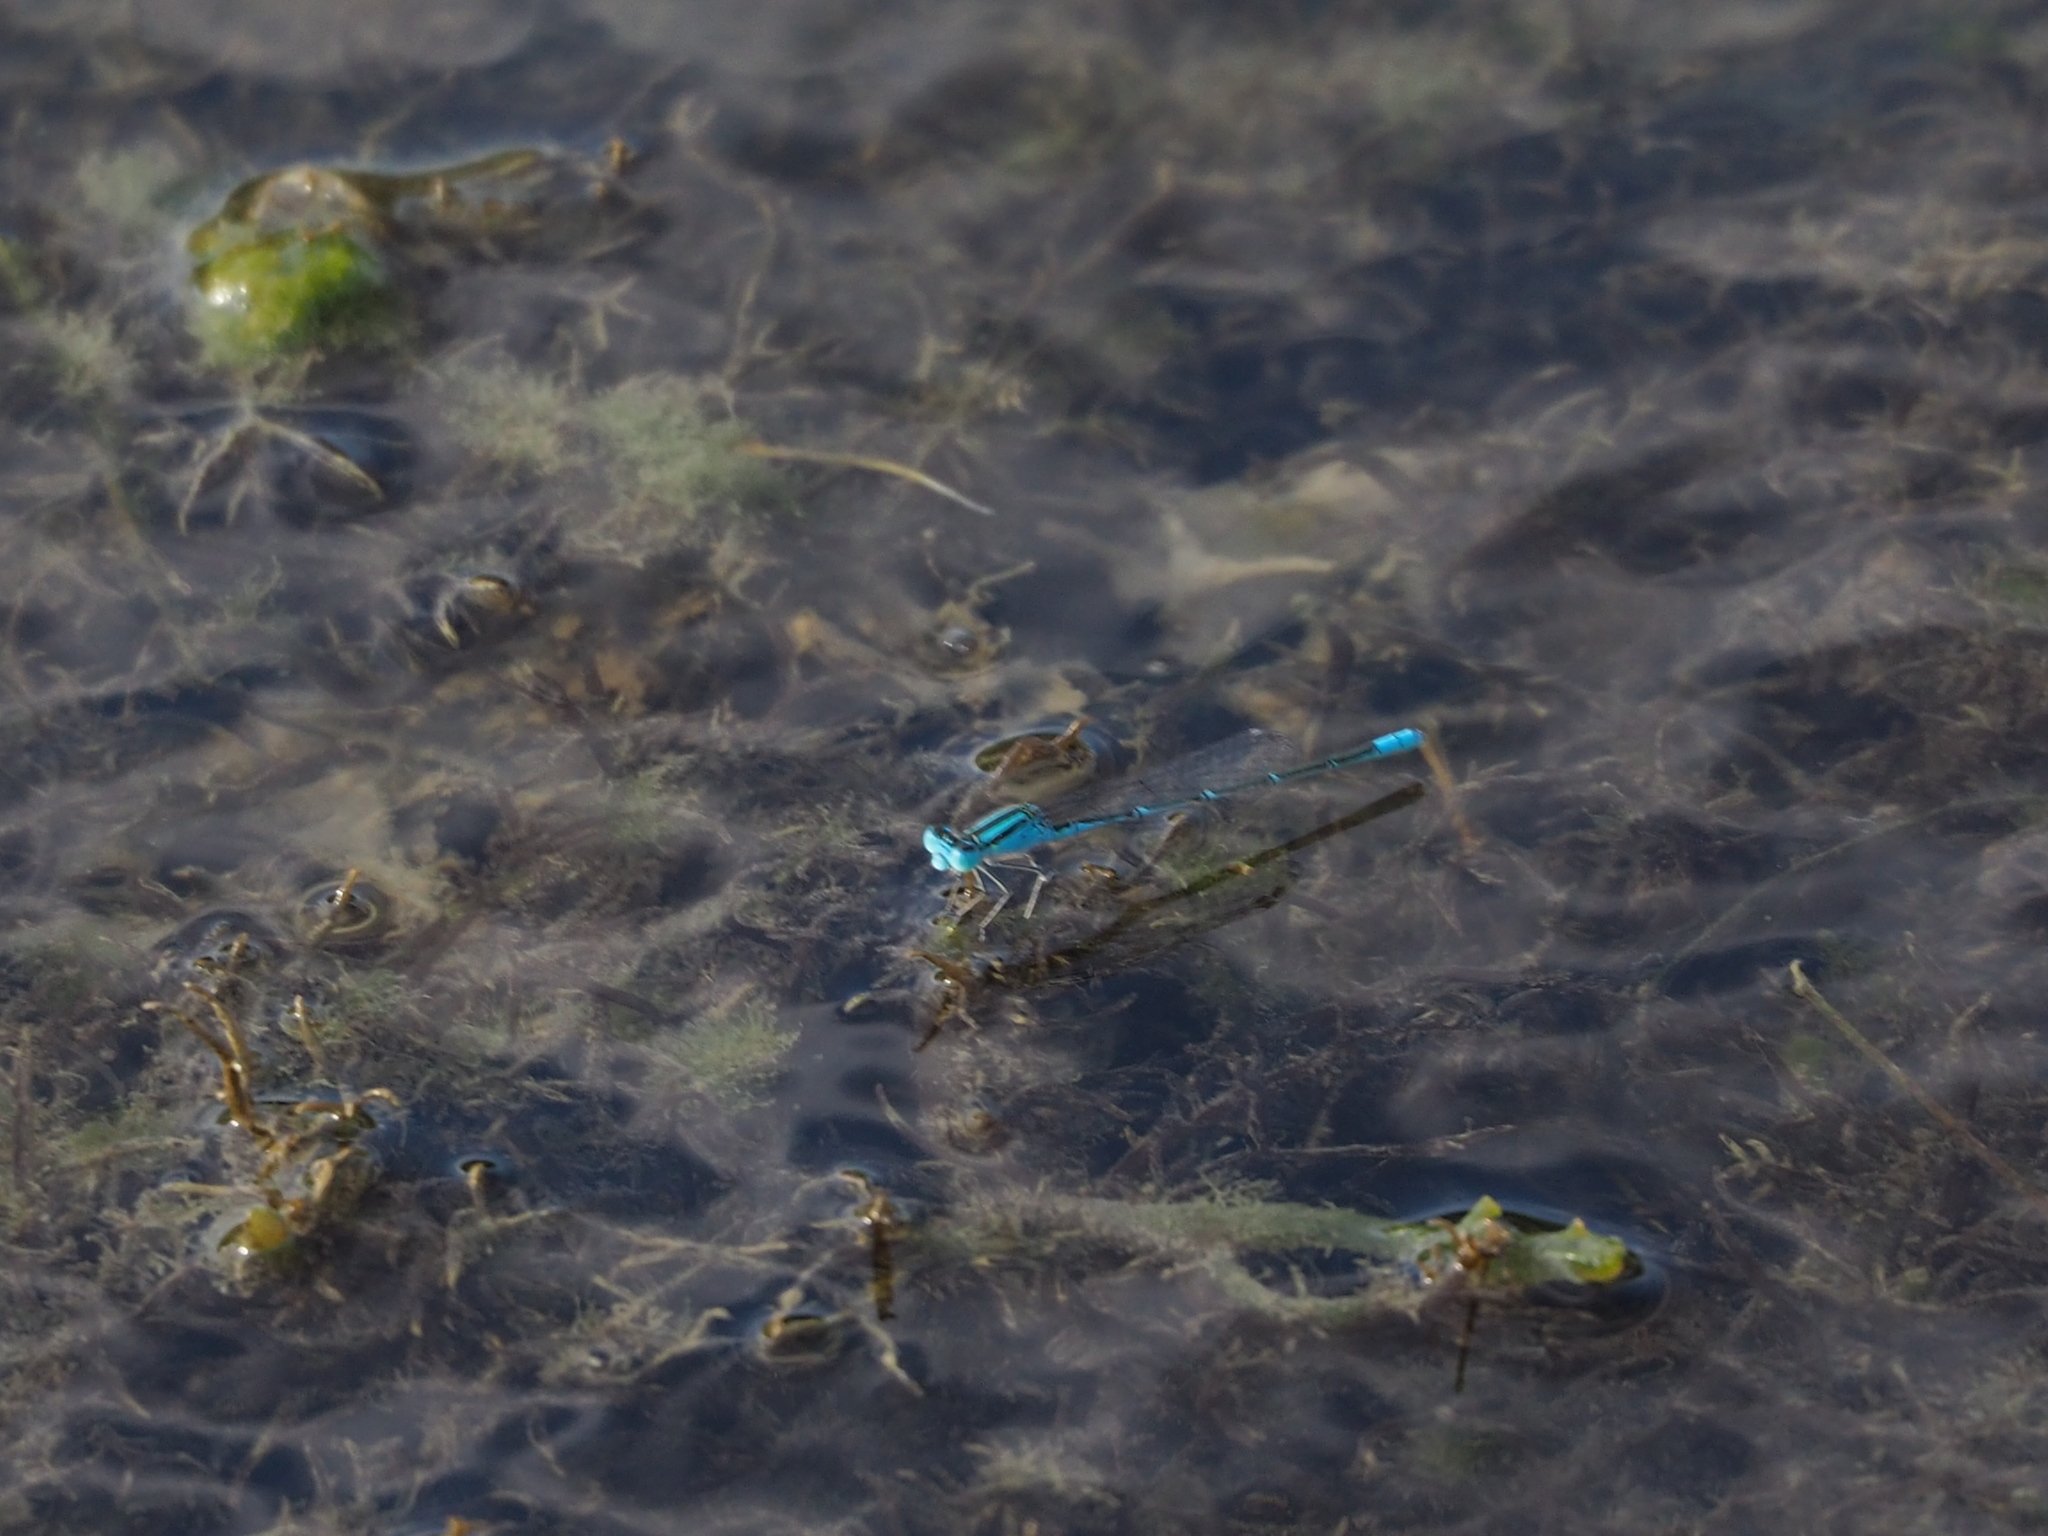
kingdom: Animalia
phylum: Arthropoda
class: Insecta
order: Odonata
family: Coenagrionidae
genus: Paracercion
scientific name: Paracercion melanotum
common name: Eastern lilysquatter
